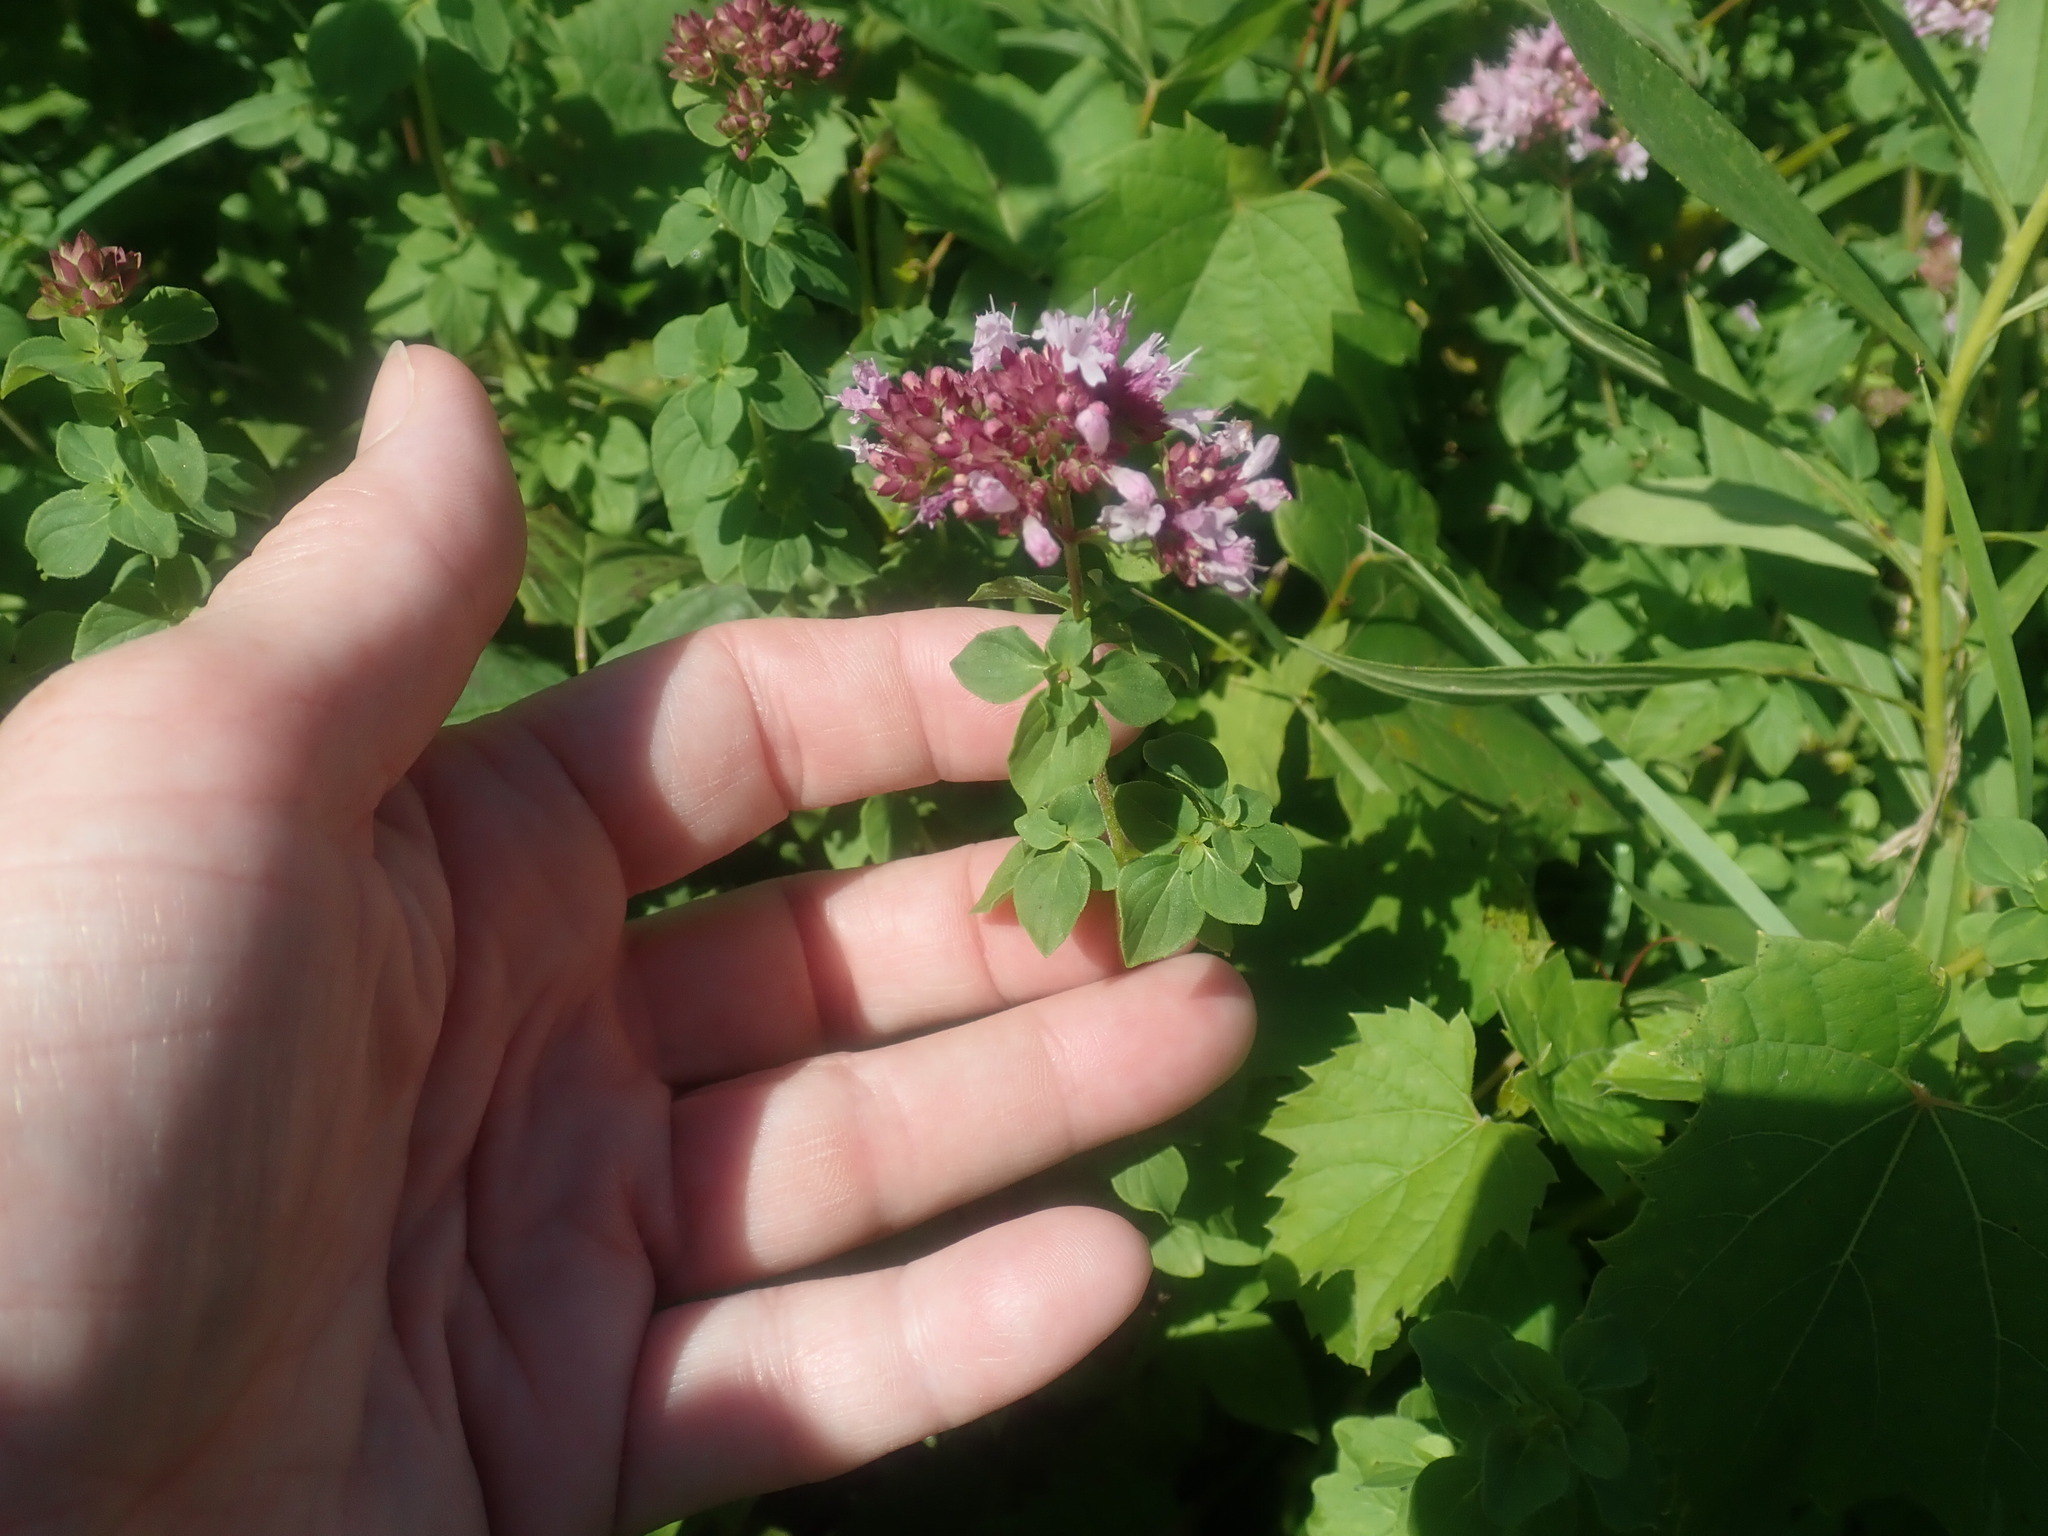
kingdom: Plantae
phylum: Tracheophyta
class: Magnoliopsida
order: Lamiales
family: Lamiaceae
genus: Origanum
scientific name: Origanum vulgare
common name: Wild marjoram
